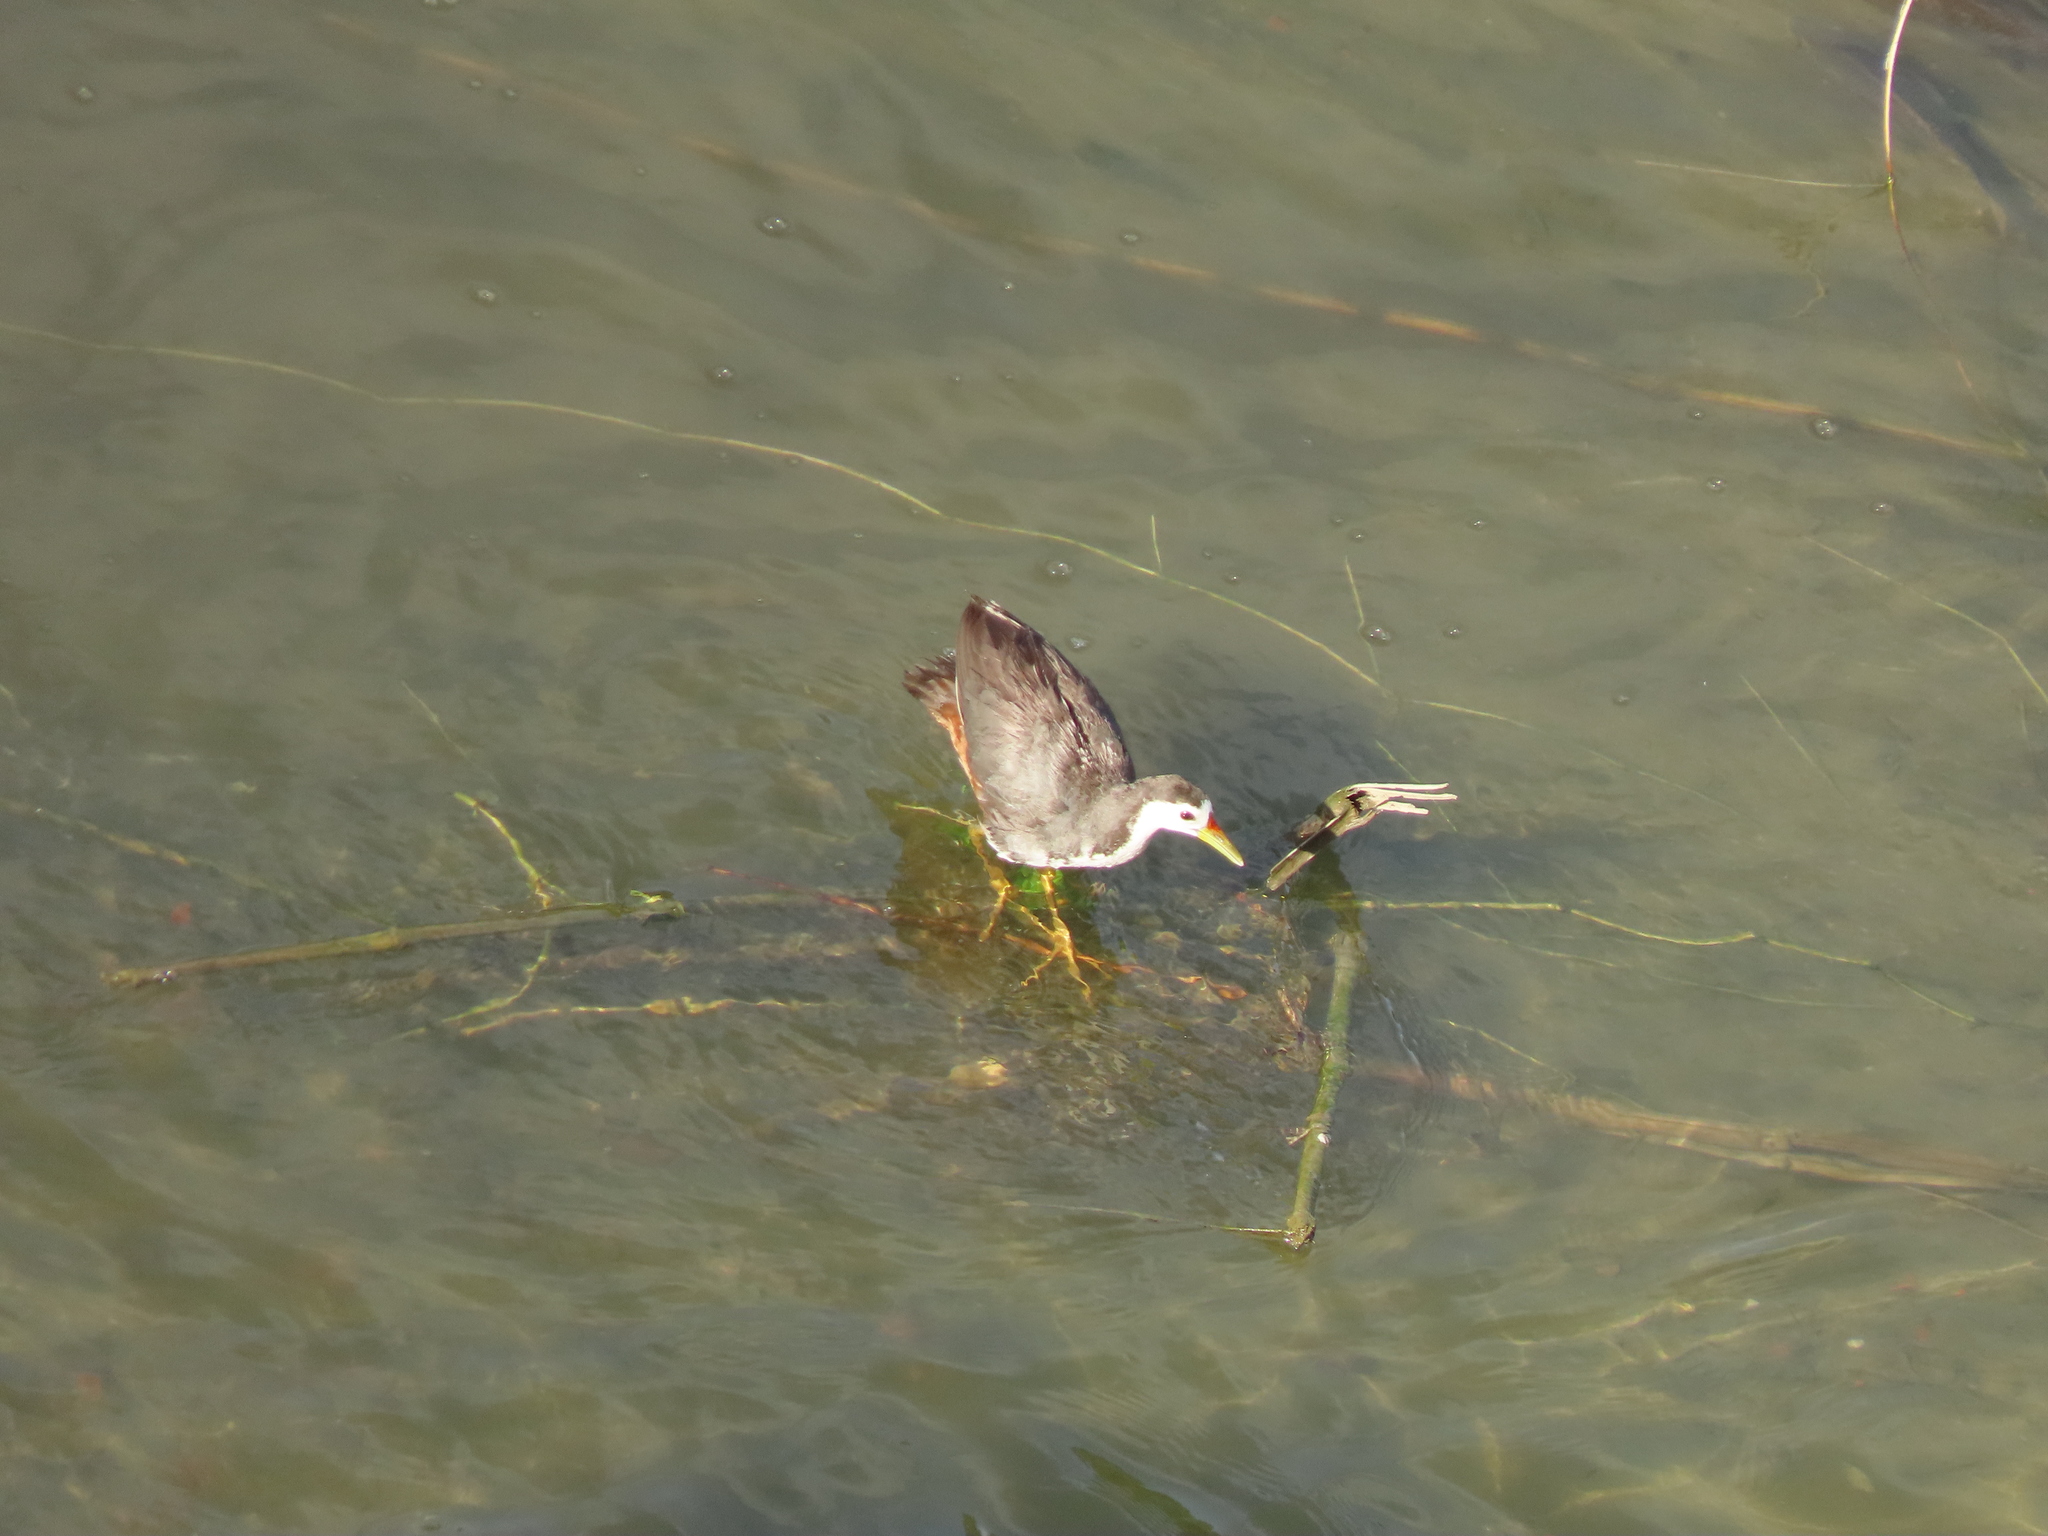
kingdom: Animalia
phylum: Chordata
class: Aves
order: Gruiformes
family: Rallidae
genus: Amaurornis
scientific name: Amaurornis phoenicurus
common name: White-breasted waterhen
